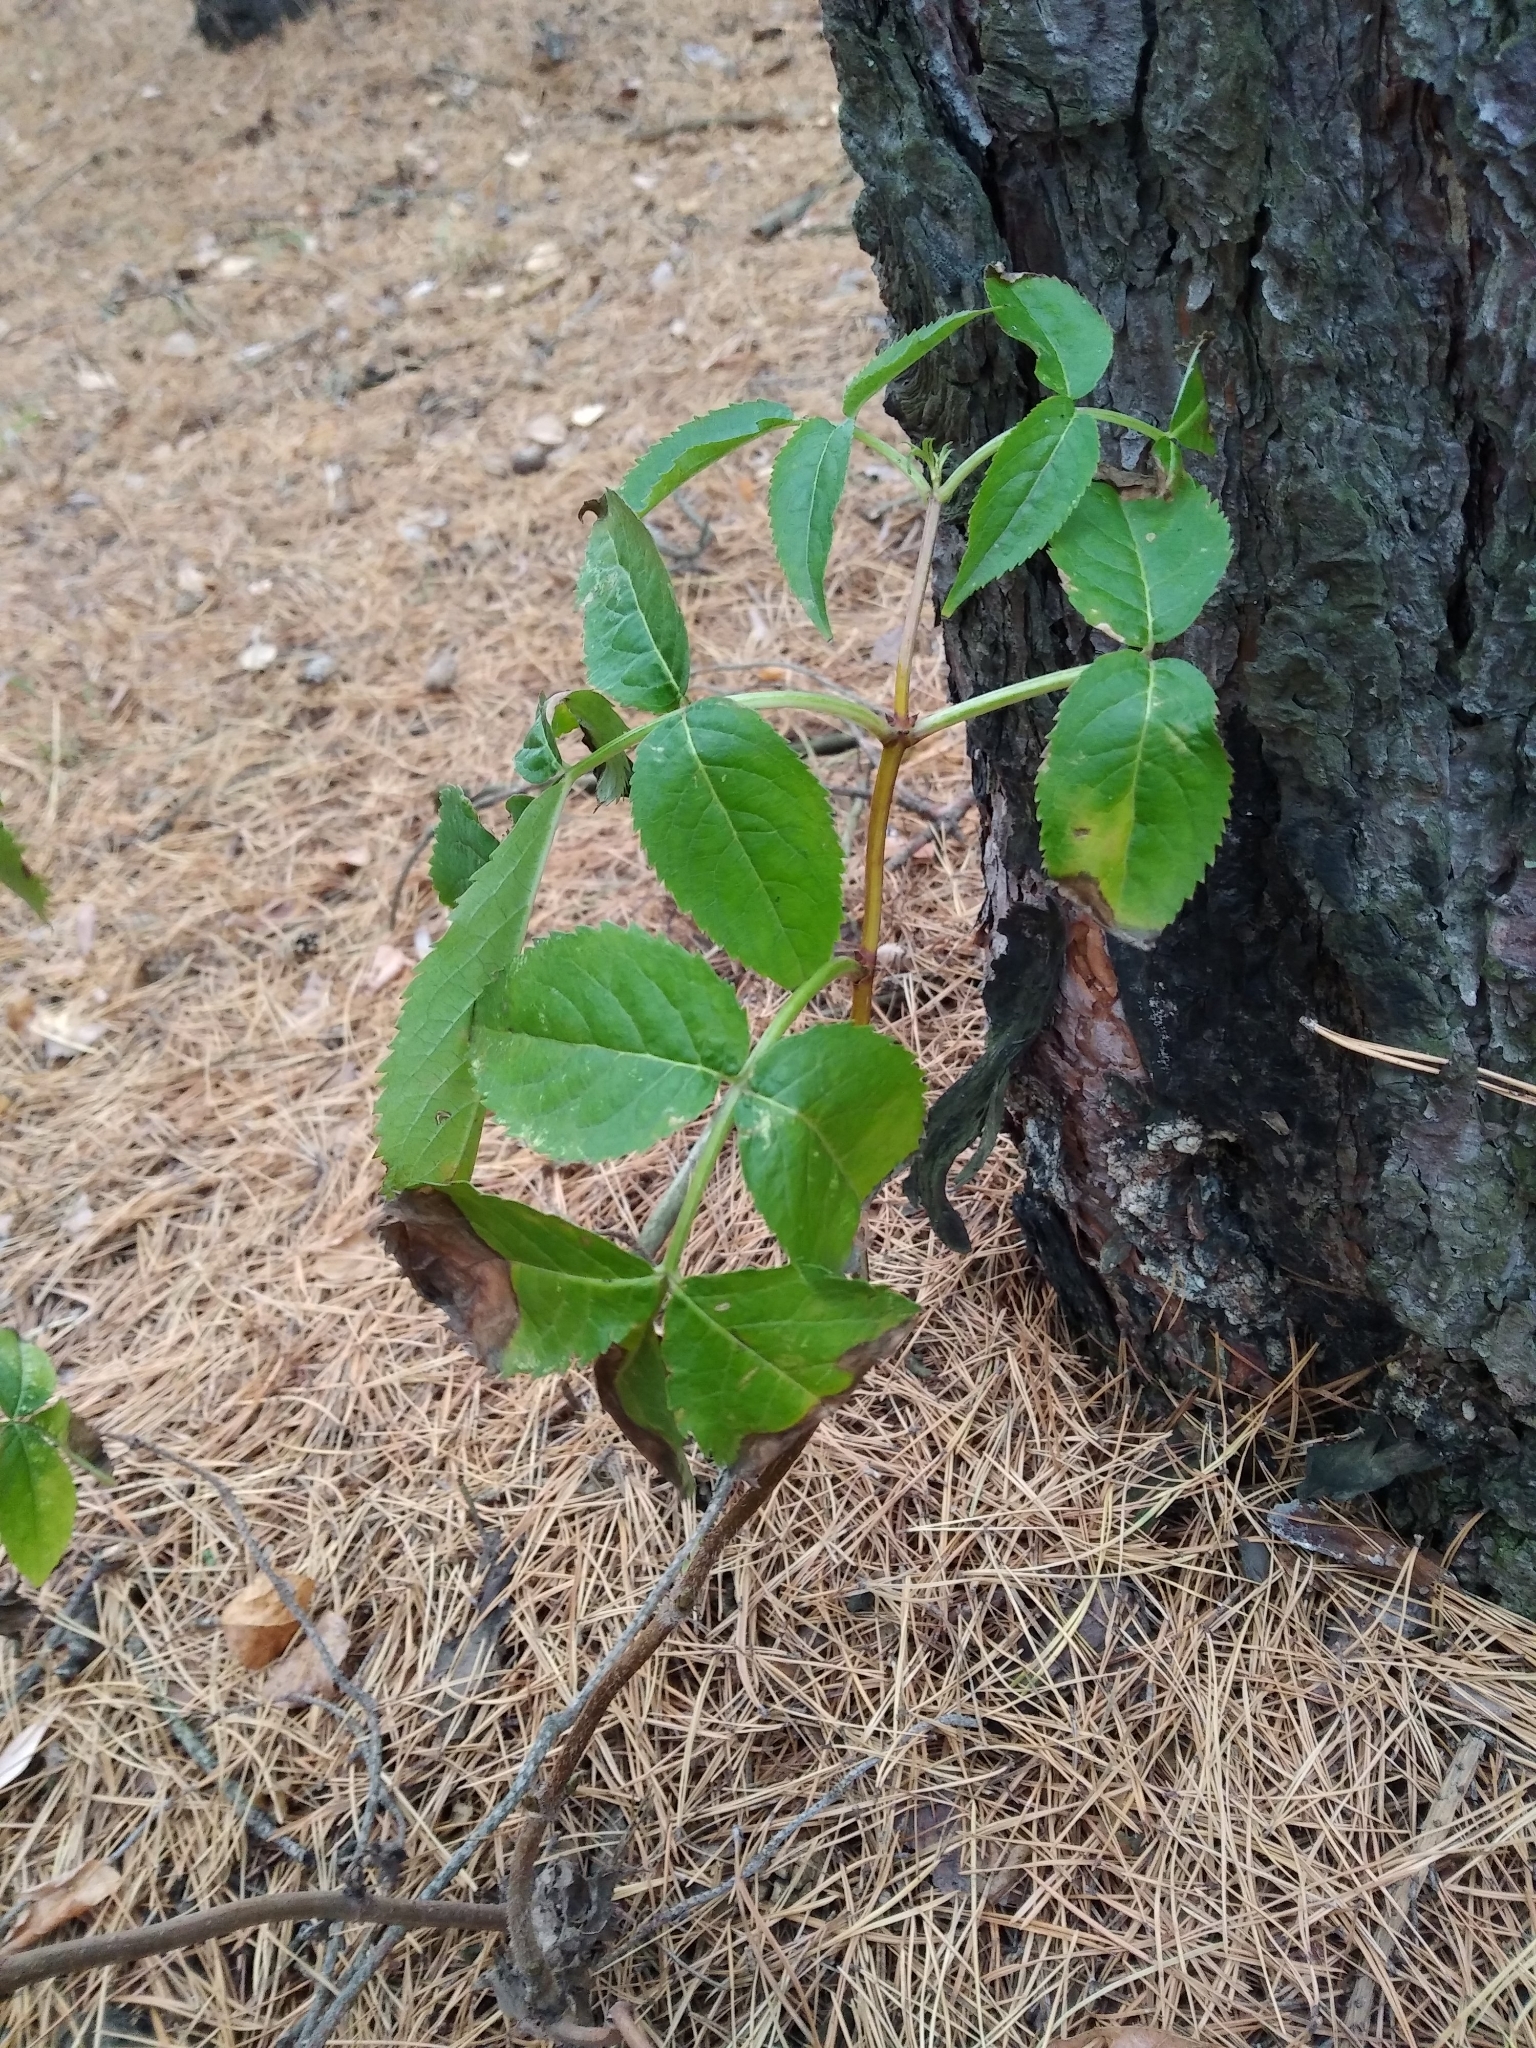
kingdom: Plantae
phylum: Tracheophyta
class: Magnoliopsida
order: Dipsacales
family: Viburnaceae
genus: Sambucus
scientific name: Sambucus racemosa
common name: Red-berried elder
